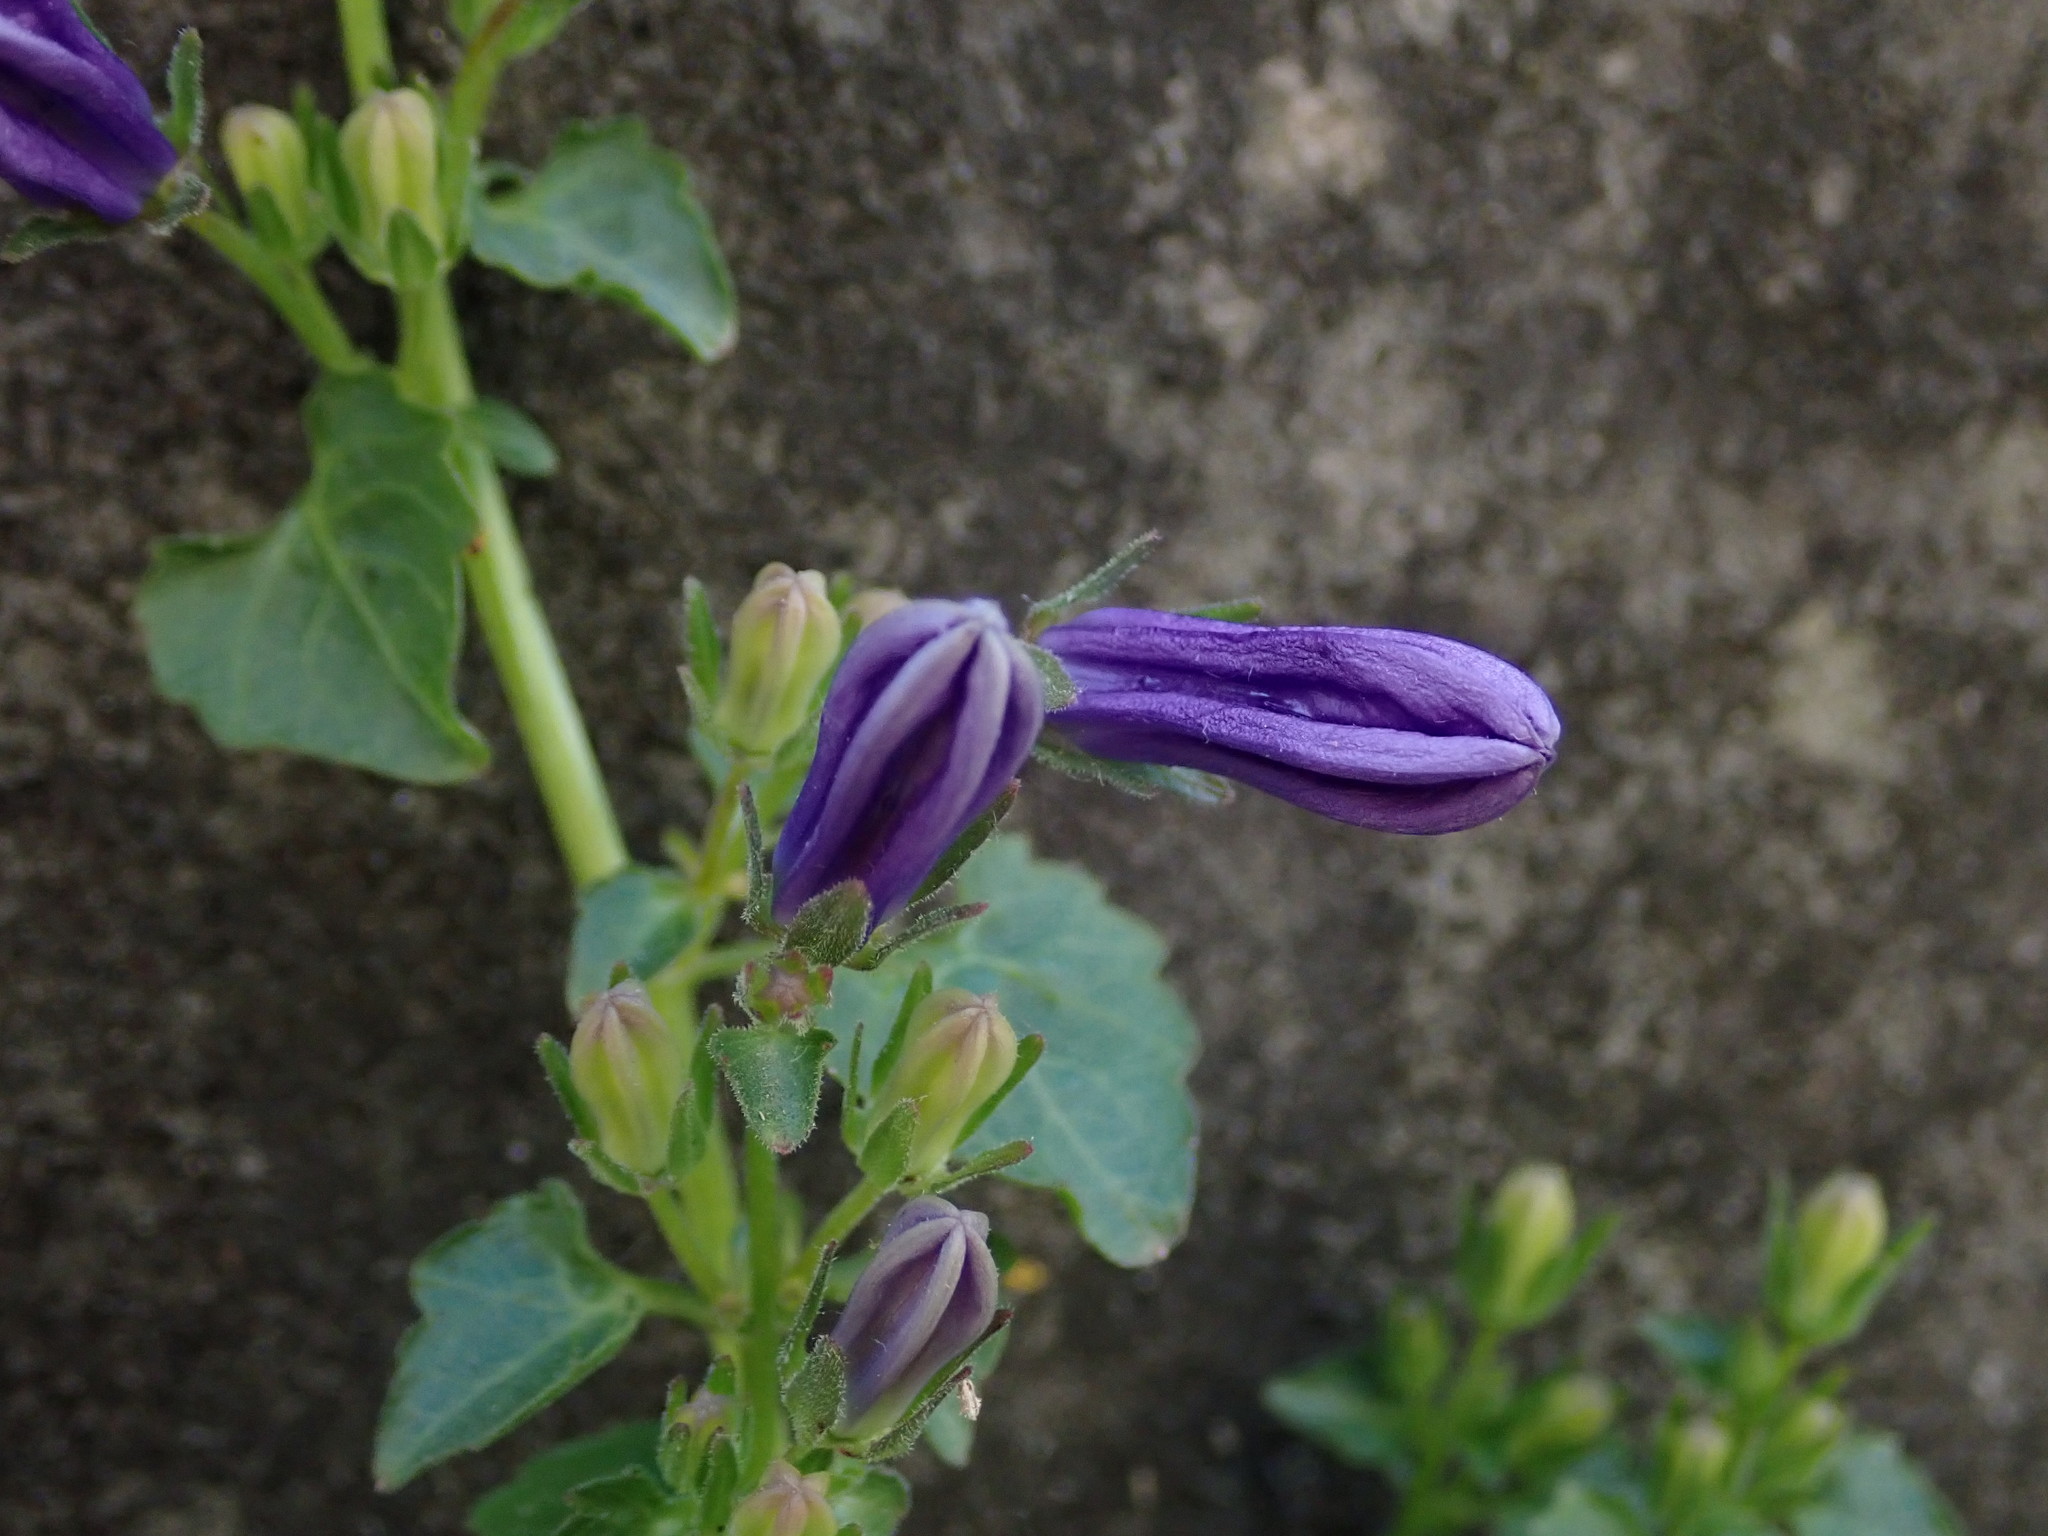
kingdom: Plantae
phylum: Tracheophyta
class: Magnoliopsida
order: Asterales
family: Campanulaceae
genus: Campanula
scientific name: Campanula portenschlagiana
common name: Adria bellflower
